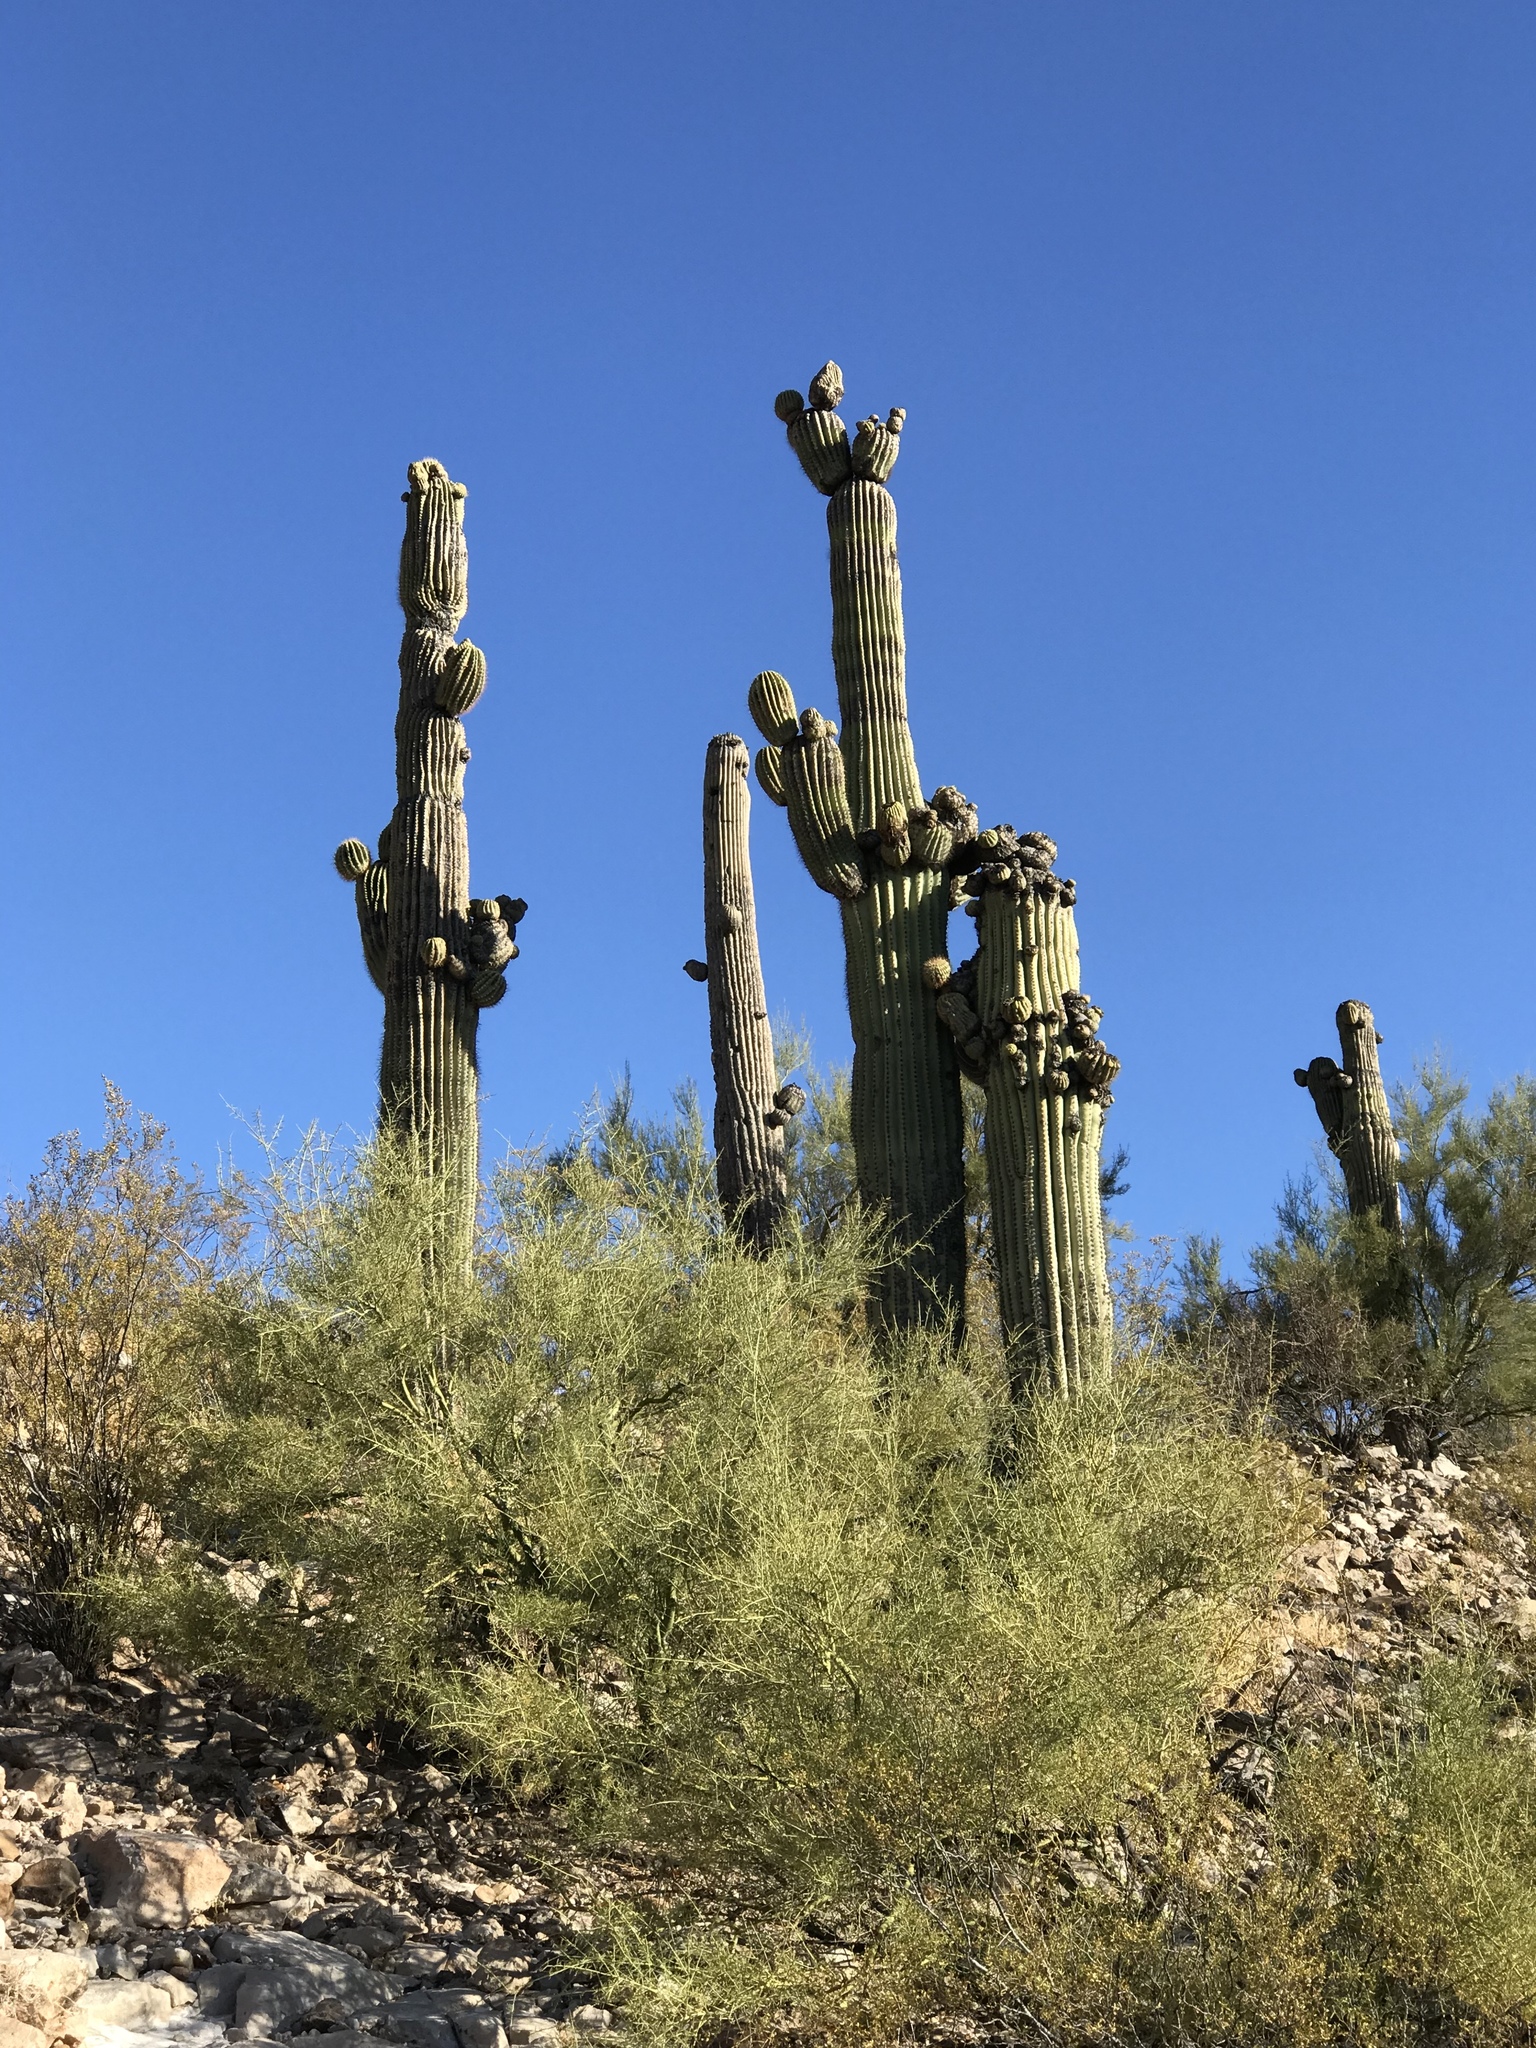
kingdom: Plantae
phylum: Tracheophyta
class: Magnoliopsida
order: Caryophyllales
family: Cactaceae
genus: Carnegiea
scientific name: Carnegiea gigantea
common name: Saguaro
